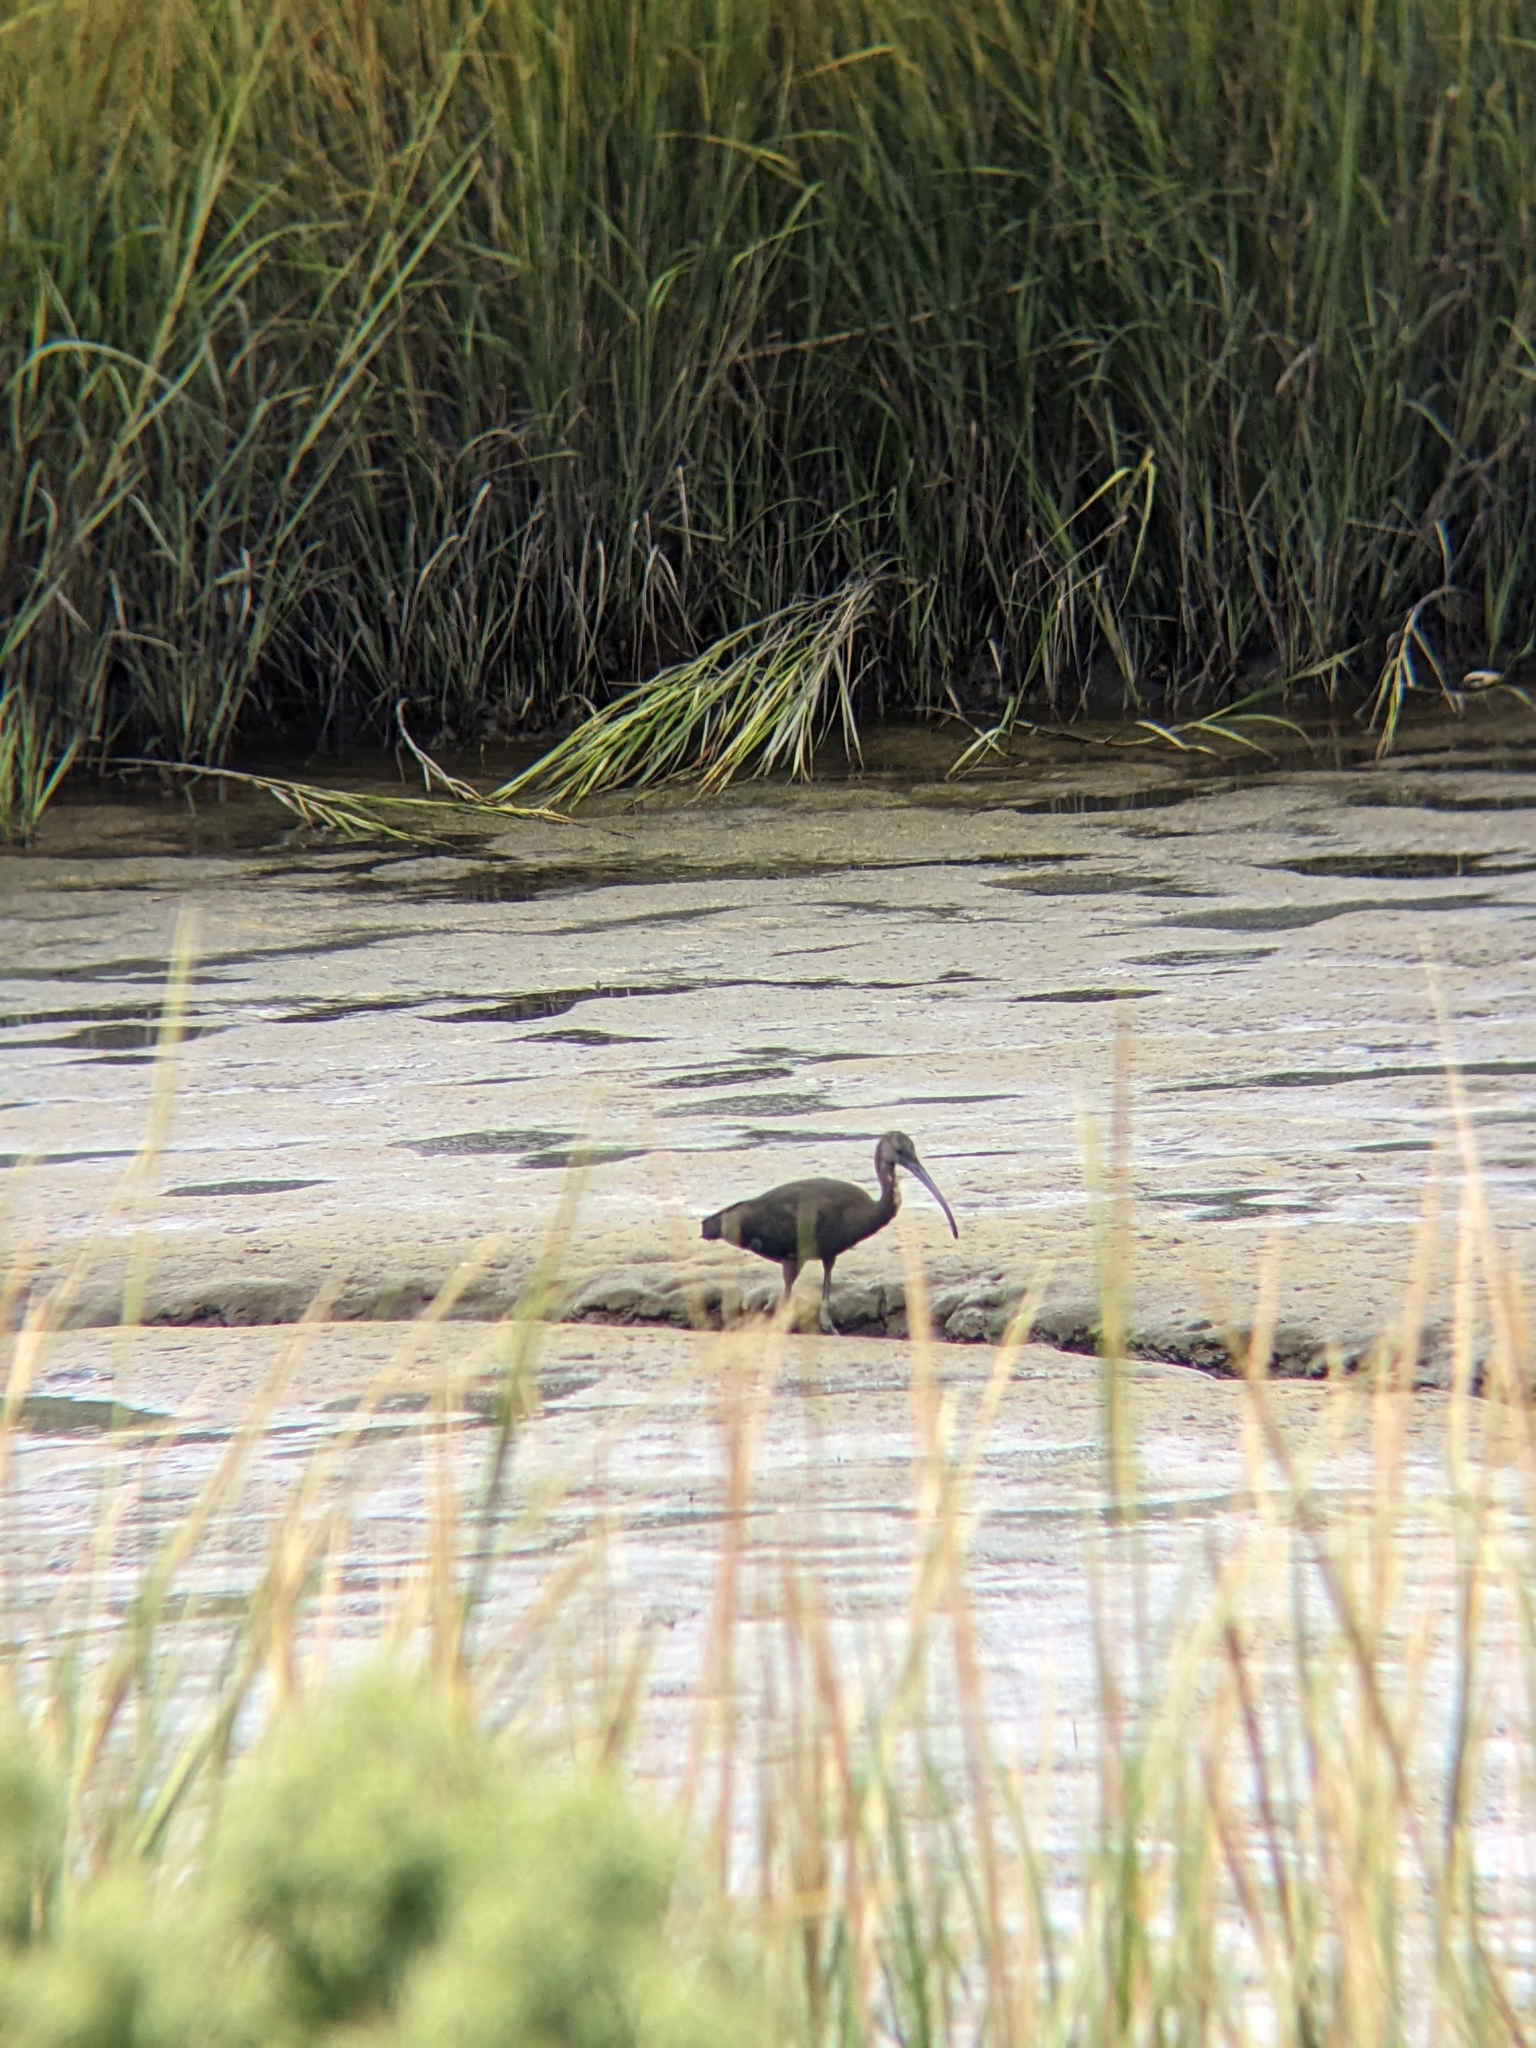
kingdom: Animalia
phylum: Chordata
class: Aves
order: Pelecaniformes
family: Threskiornithidae
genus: Plegadis
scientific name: Plegadis falcinellus
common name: Glossy ibis
